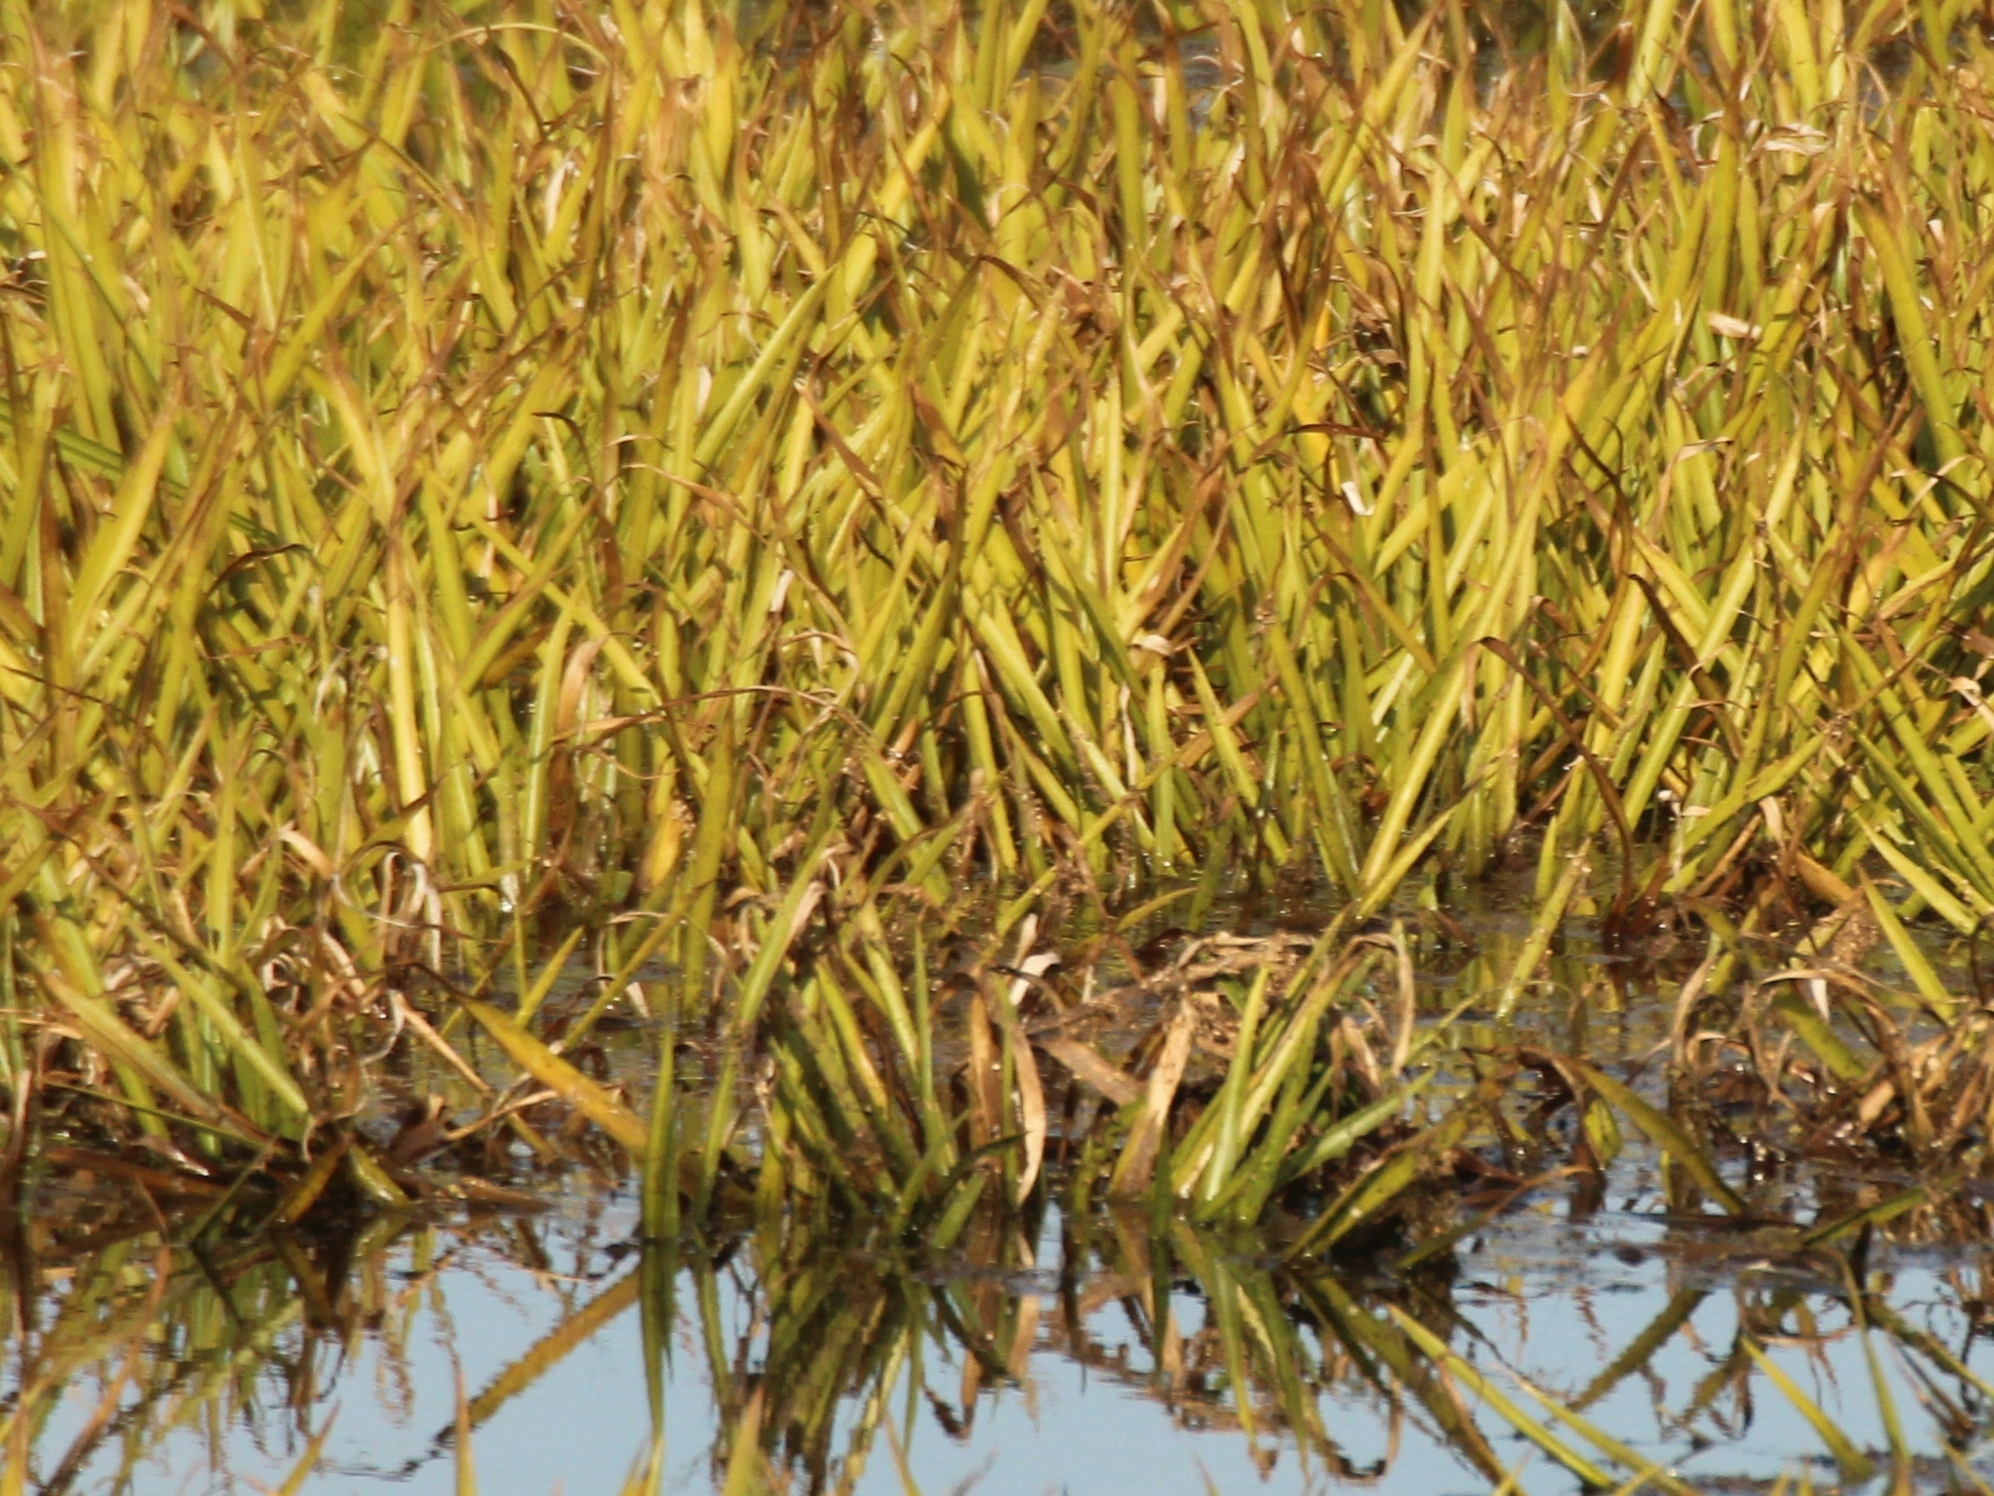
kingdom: Plantae
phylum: Tracheophyta
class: Liliopsida
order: Alismatales
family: Hydrocharitaceae
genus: Stratiotes
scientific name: Stratiotes aloides
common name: Water-soldier
